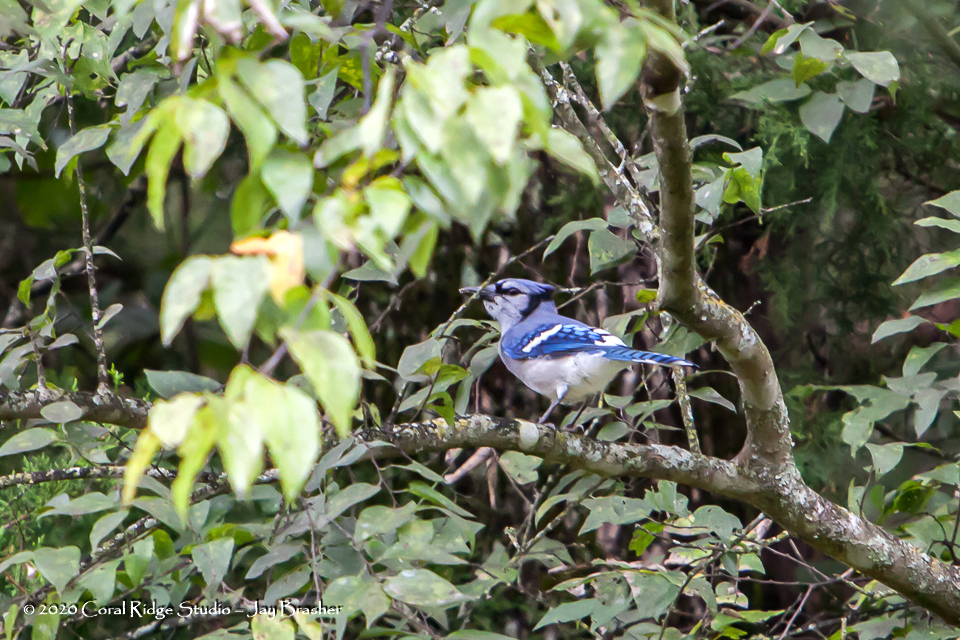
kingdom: Animalia
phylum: Chordata
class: Aves
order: Passeriformes
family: Corvidae
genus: Cyanocitta
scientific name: Cyanocitta cristata
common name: Blue jay
